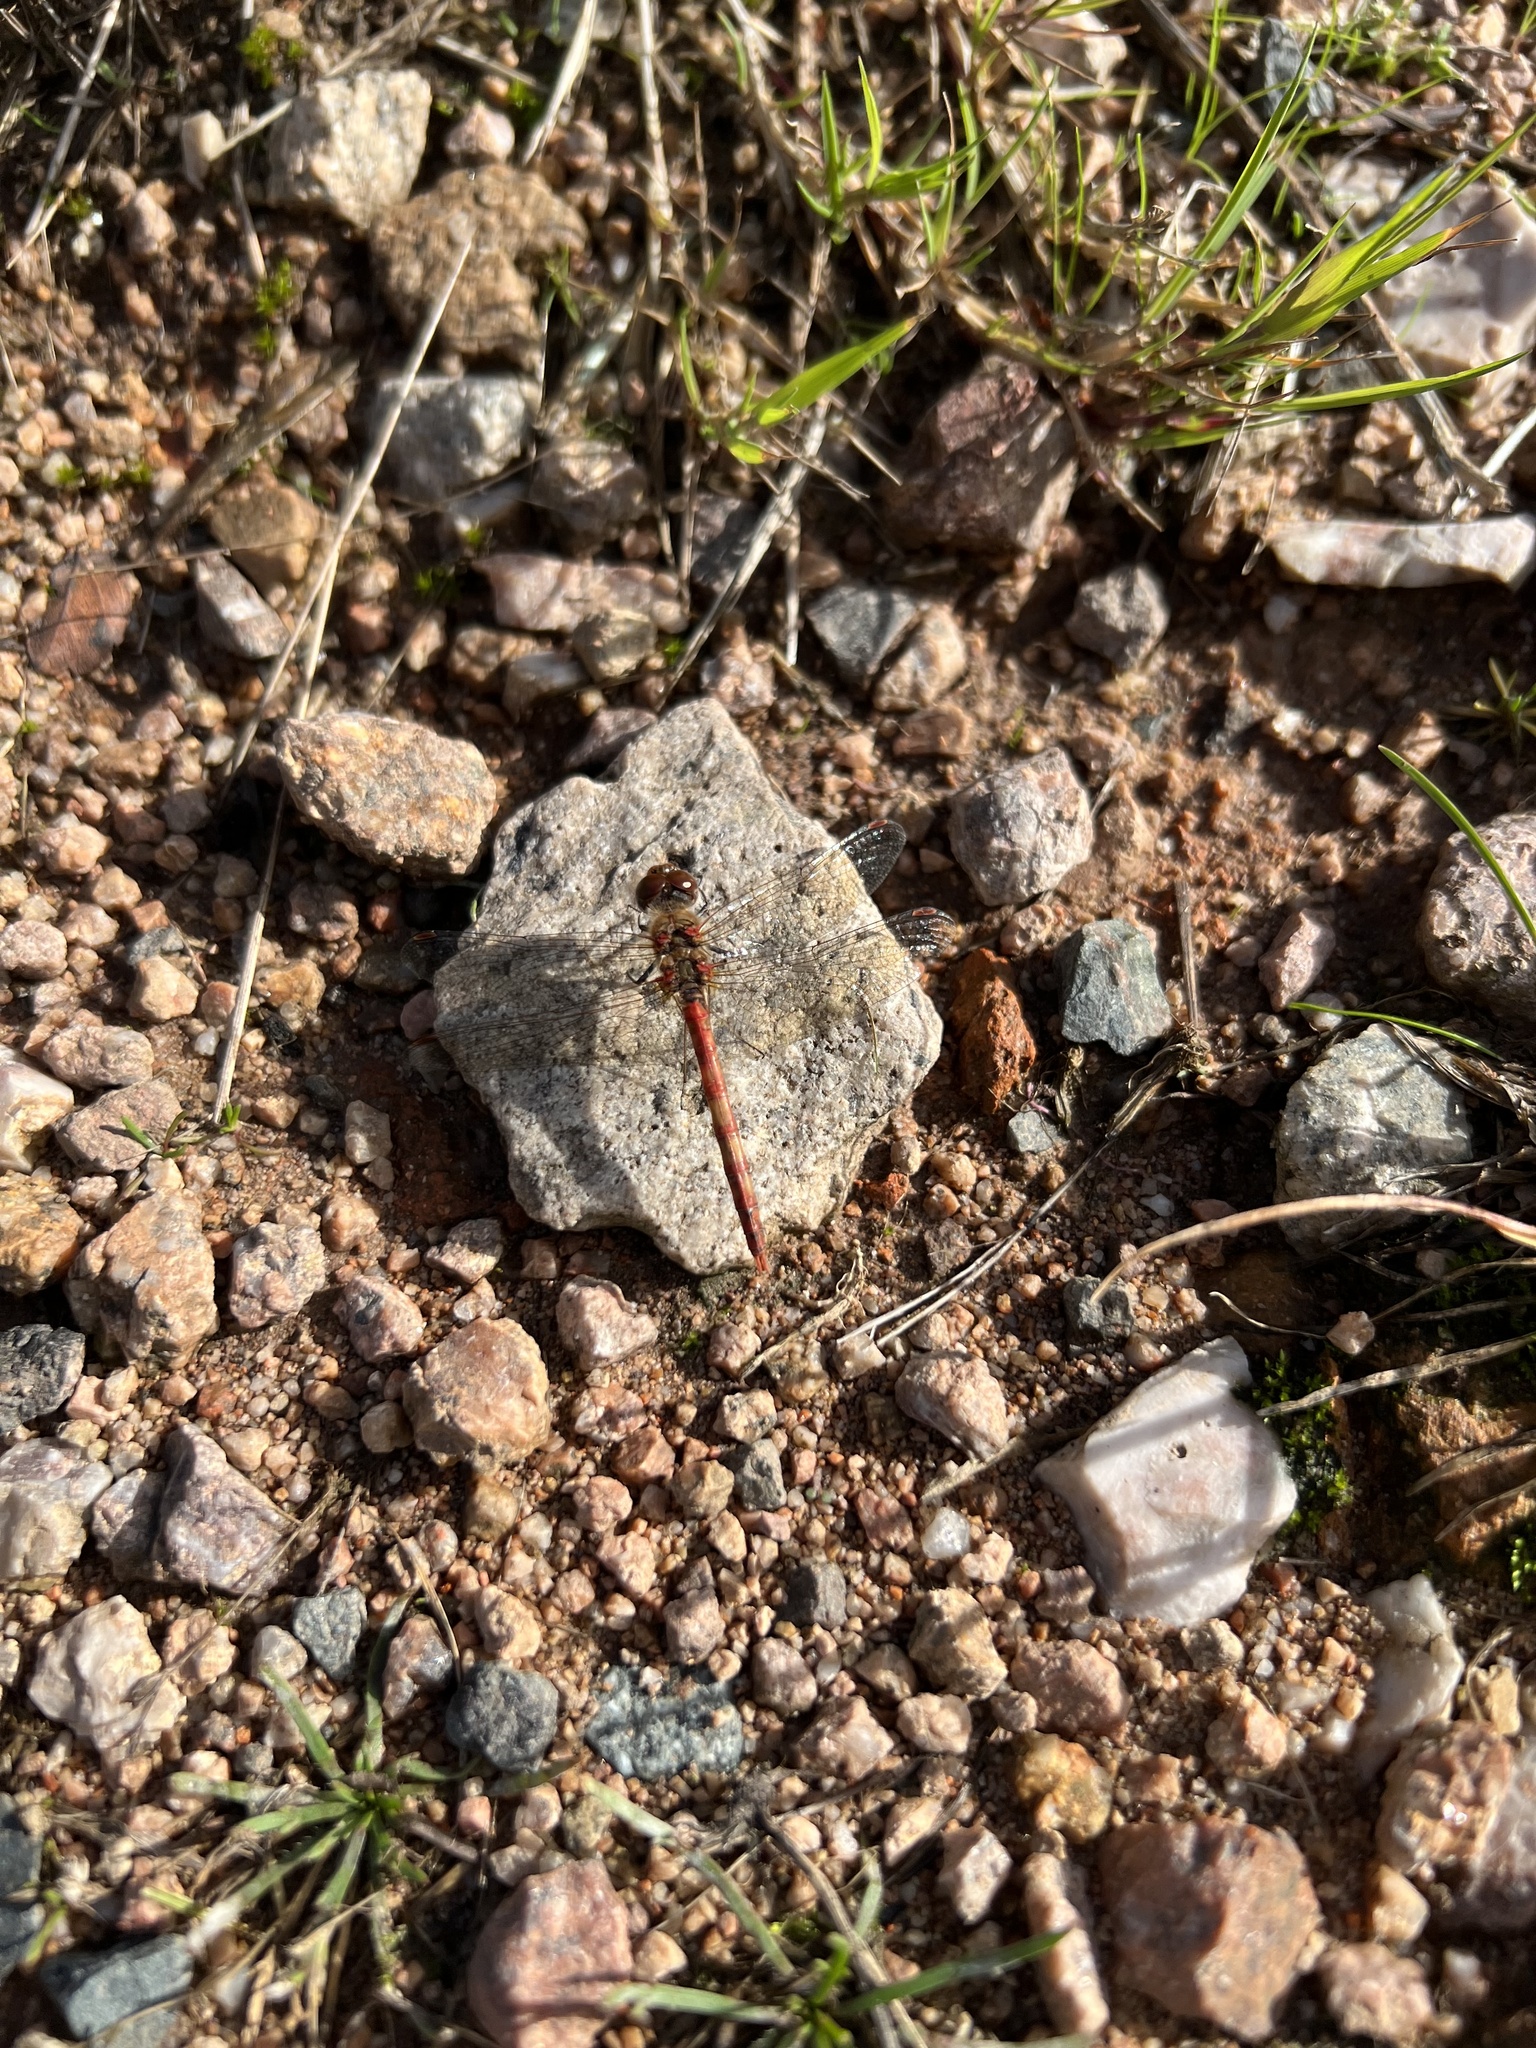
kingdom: Animalia
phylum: Arthropoda
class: Insecta
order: Odonata
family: Libellulidae
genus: Sympetrum
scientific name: Sympetrum striolatum
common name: Common darter
